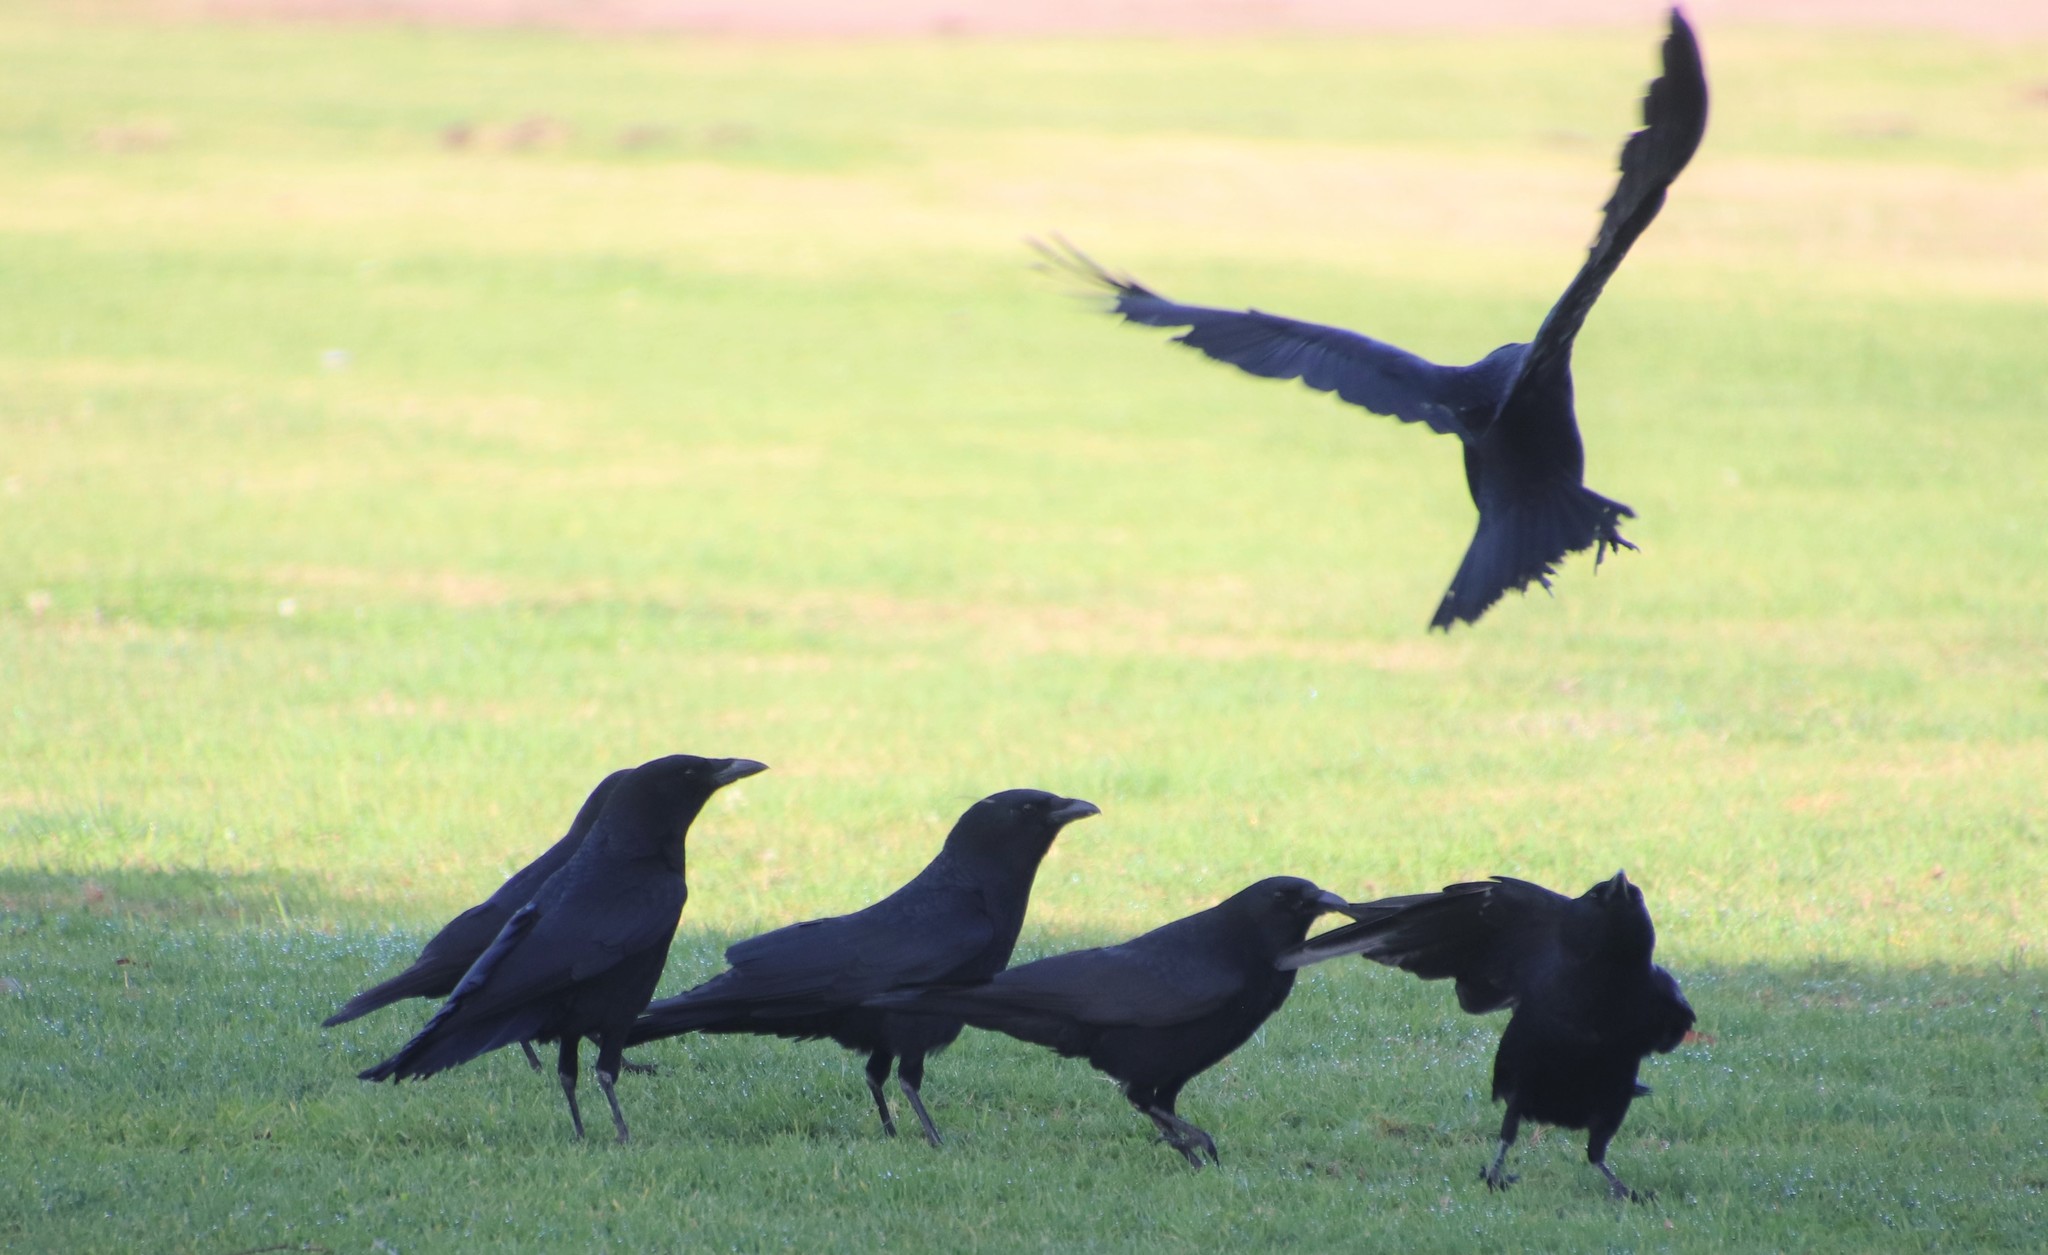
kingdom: Animalia
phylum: Chordata
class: Aves
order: Passeriformes
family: Corvidae
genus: Corvus
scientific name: Corvus brachyrhynchos
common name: American crow
